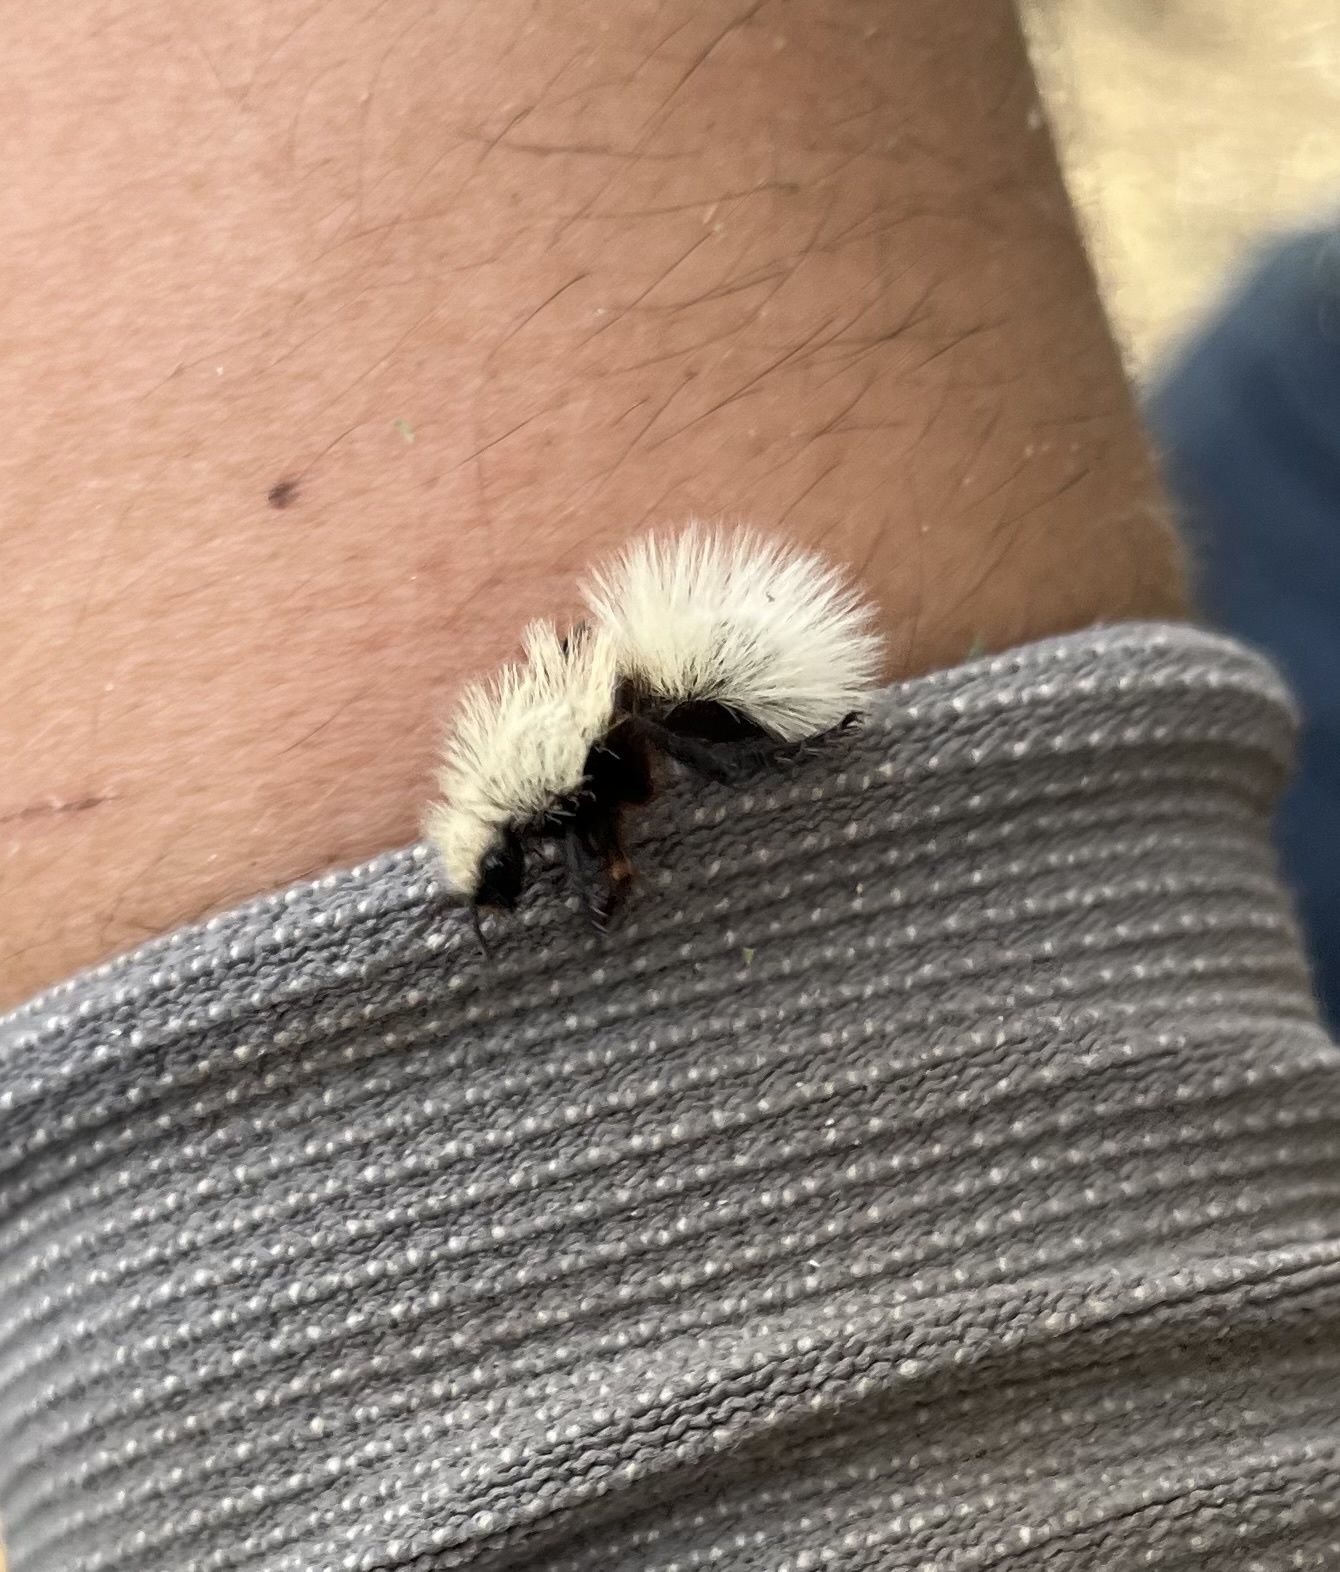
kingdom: Animalia
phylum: Arthropoda
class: Insecta
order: Hymenoptera
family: Mutillidae
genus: Dasymutilla
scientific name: Dasymutilla
